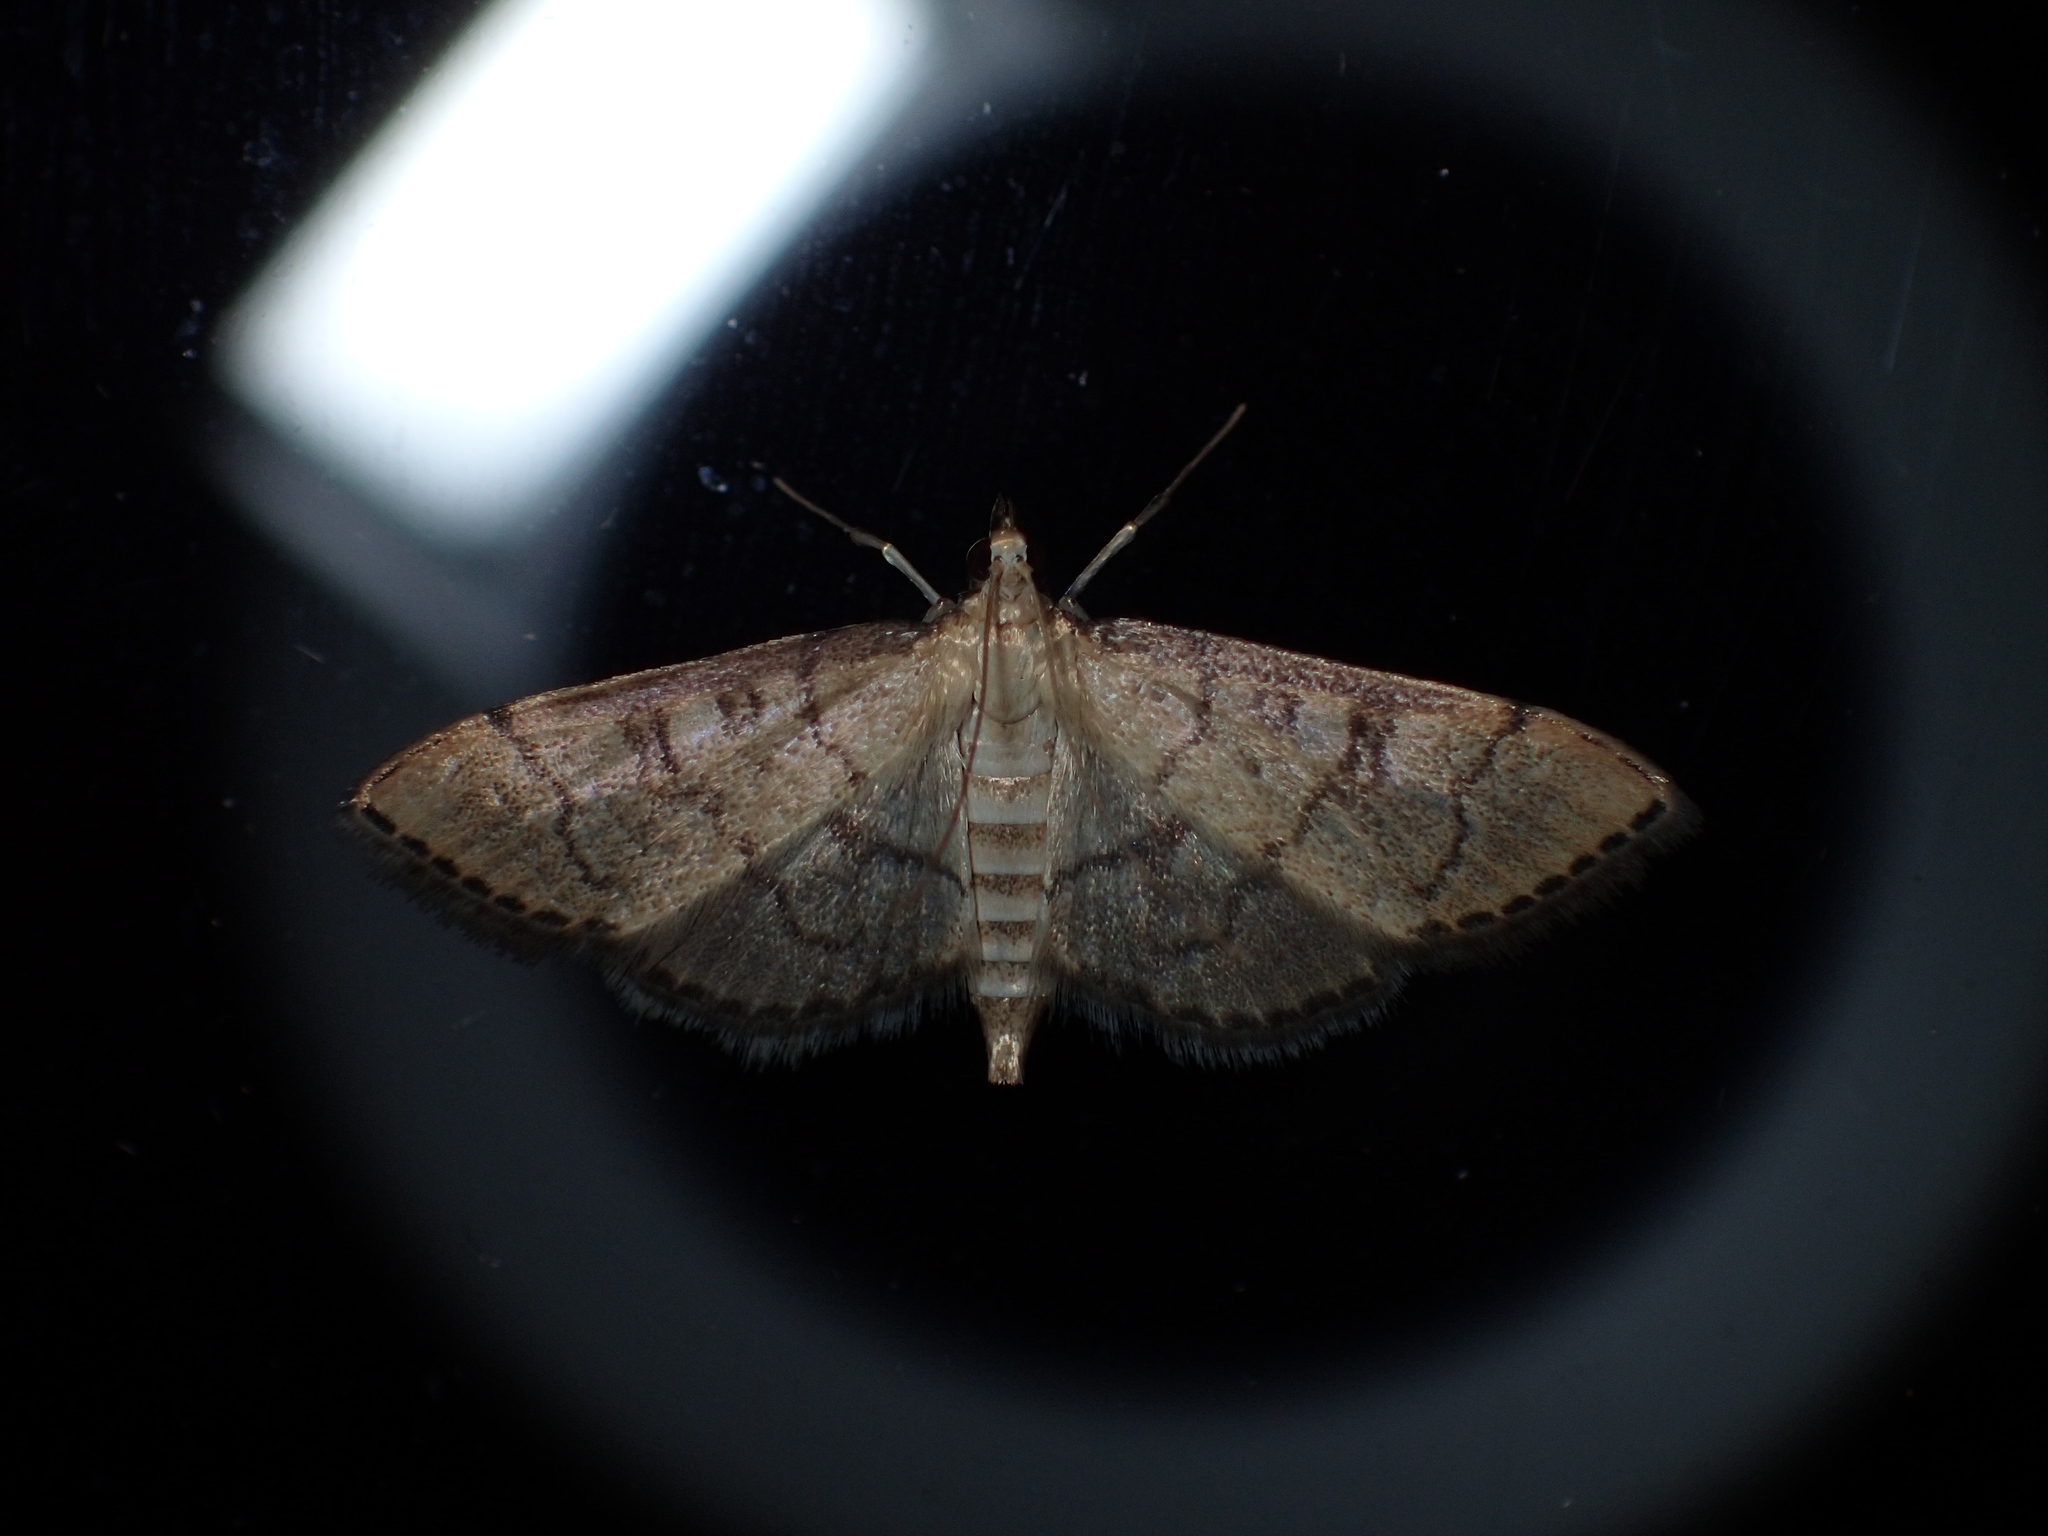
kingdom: Animalia
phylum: Arthropoda
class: Insecta
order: Lepidoptera
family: Crambidae
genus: Lamprosema
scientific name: Lamprosema Blepharomastix ranalis
